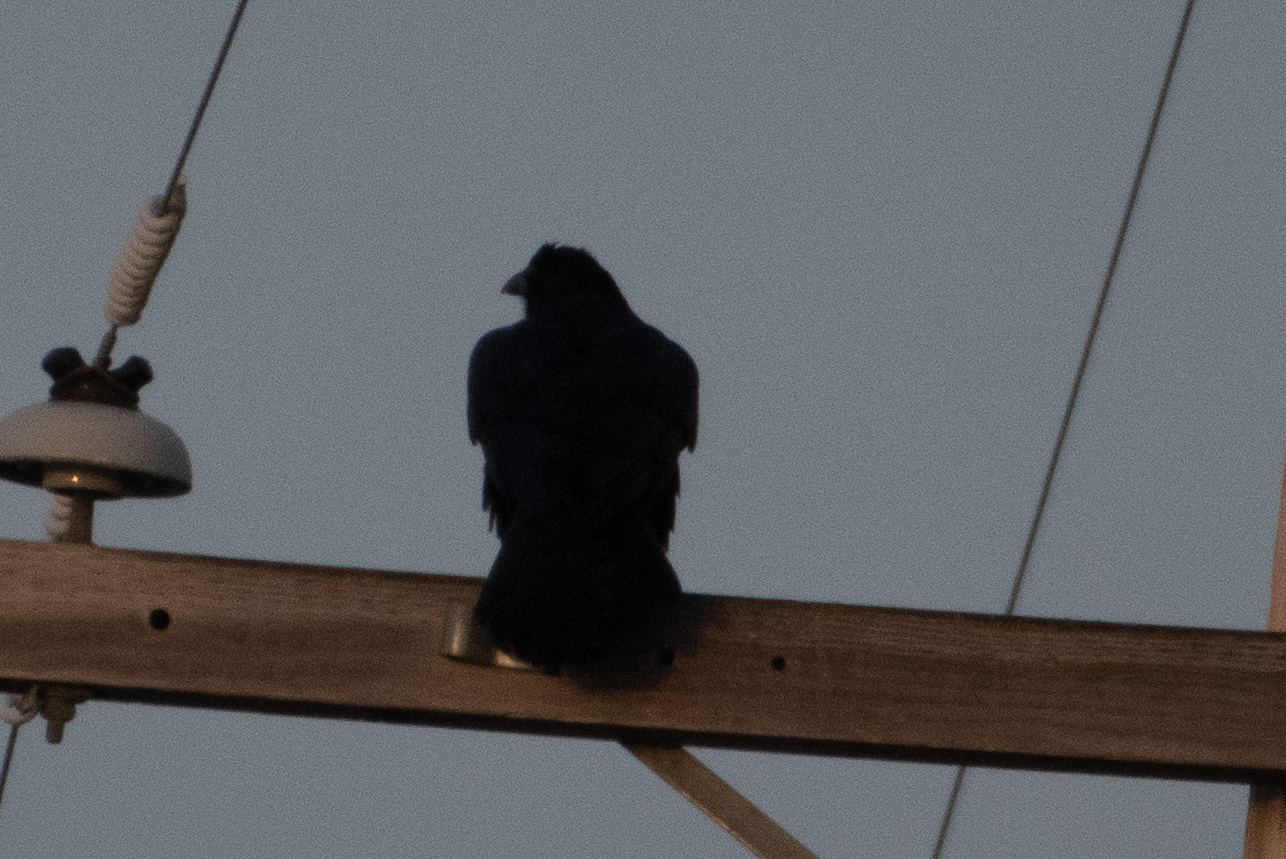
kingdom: Animalia
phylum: Chordata
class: Aves
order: Passeriformes
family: Corvidae
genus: Corvus
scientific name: Corvus corax
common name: Common raven
